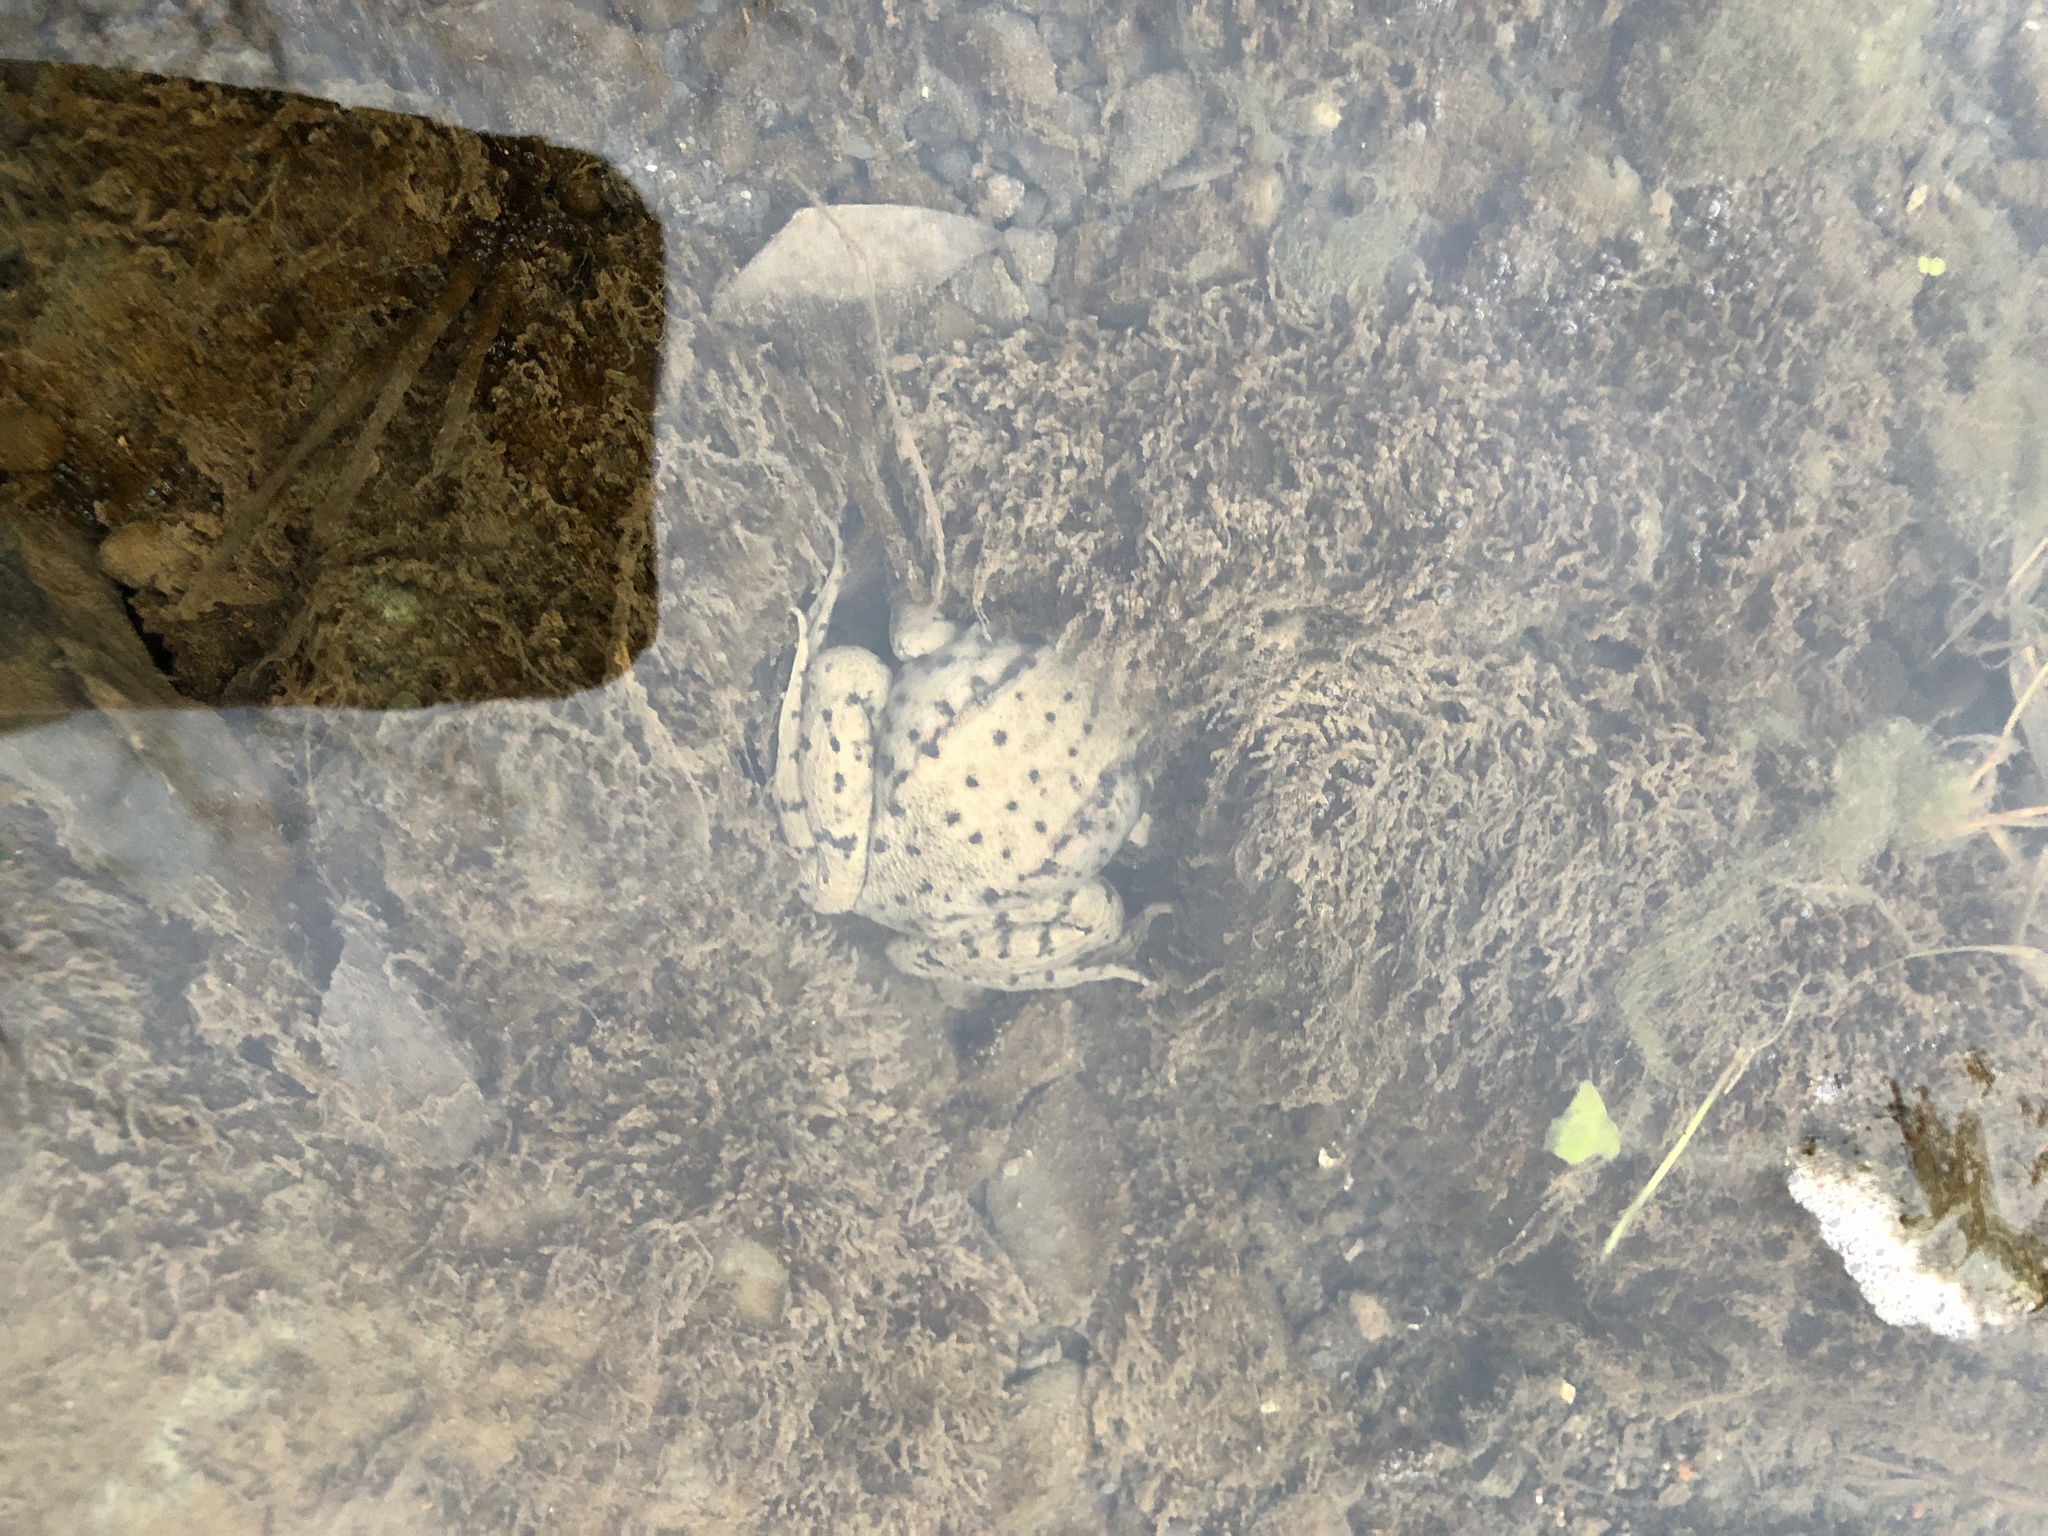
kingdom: Animalia
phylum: Chordata
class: Amphibia
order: Anura
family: Ranidae
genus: Lithobates
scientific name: Lithobates clamitans
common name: Green frog
